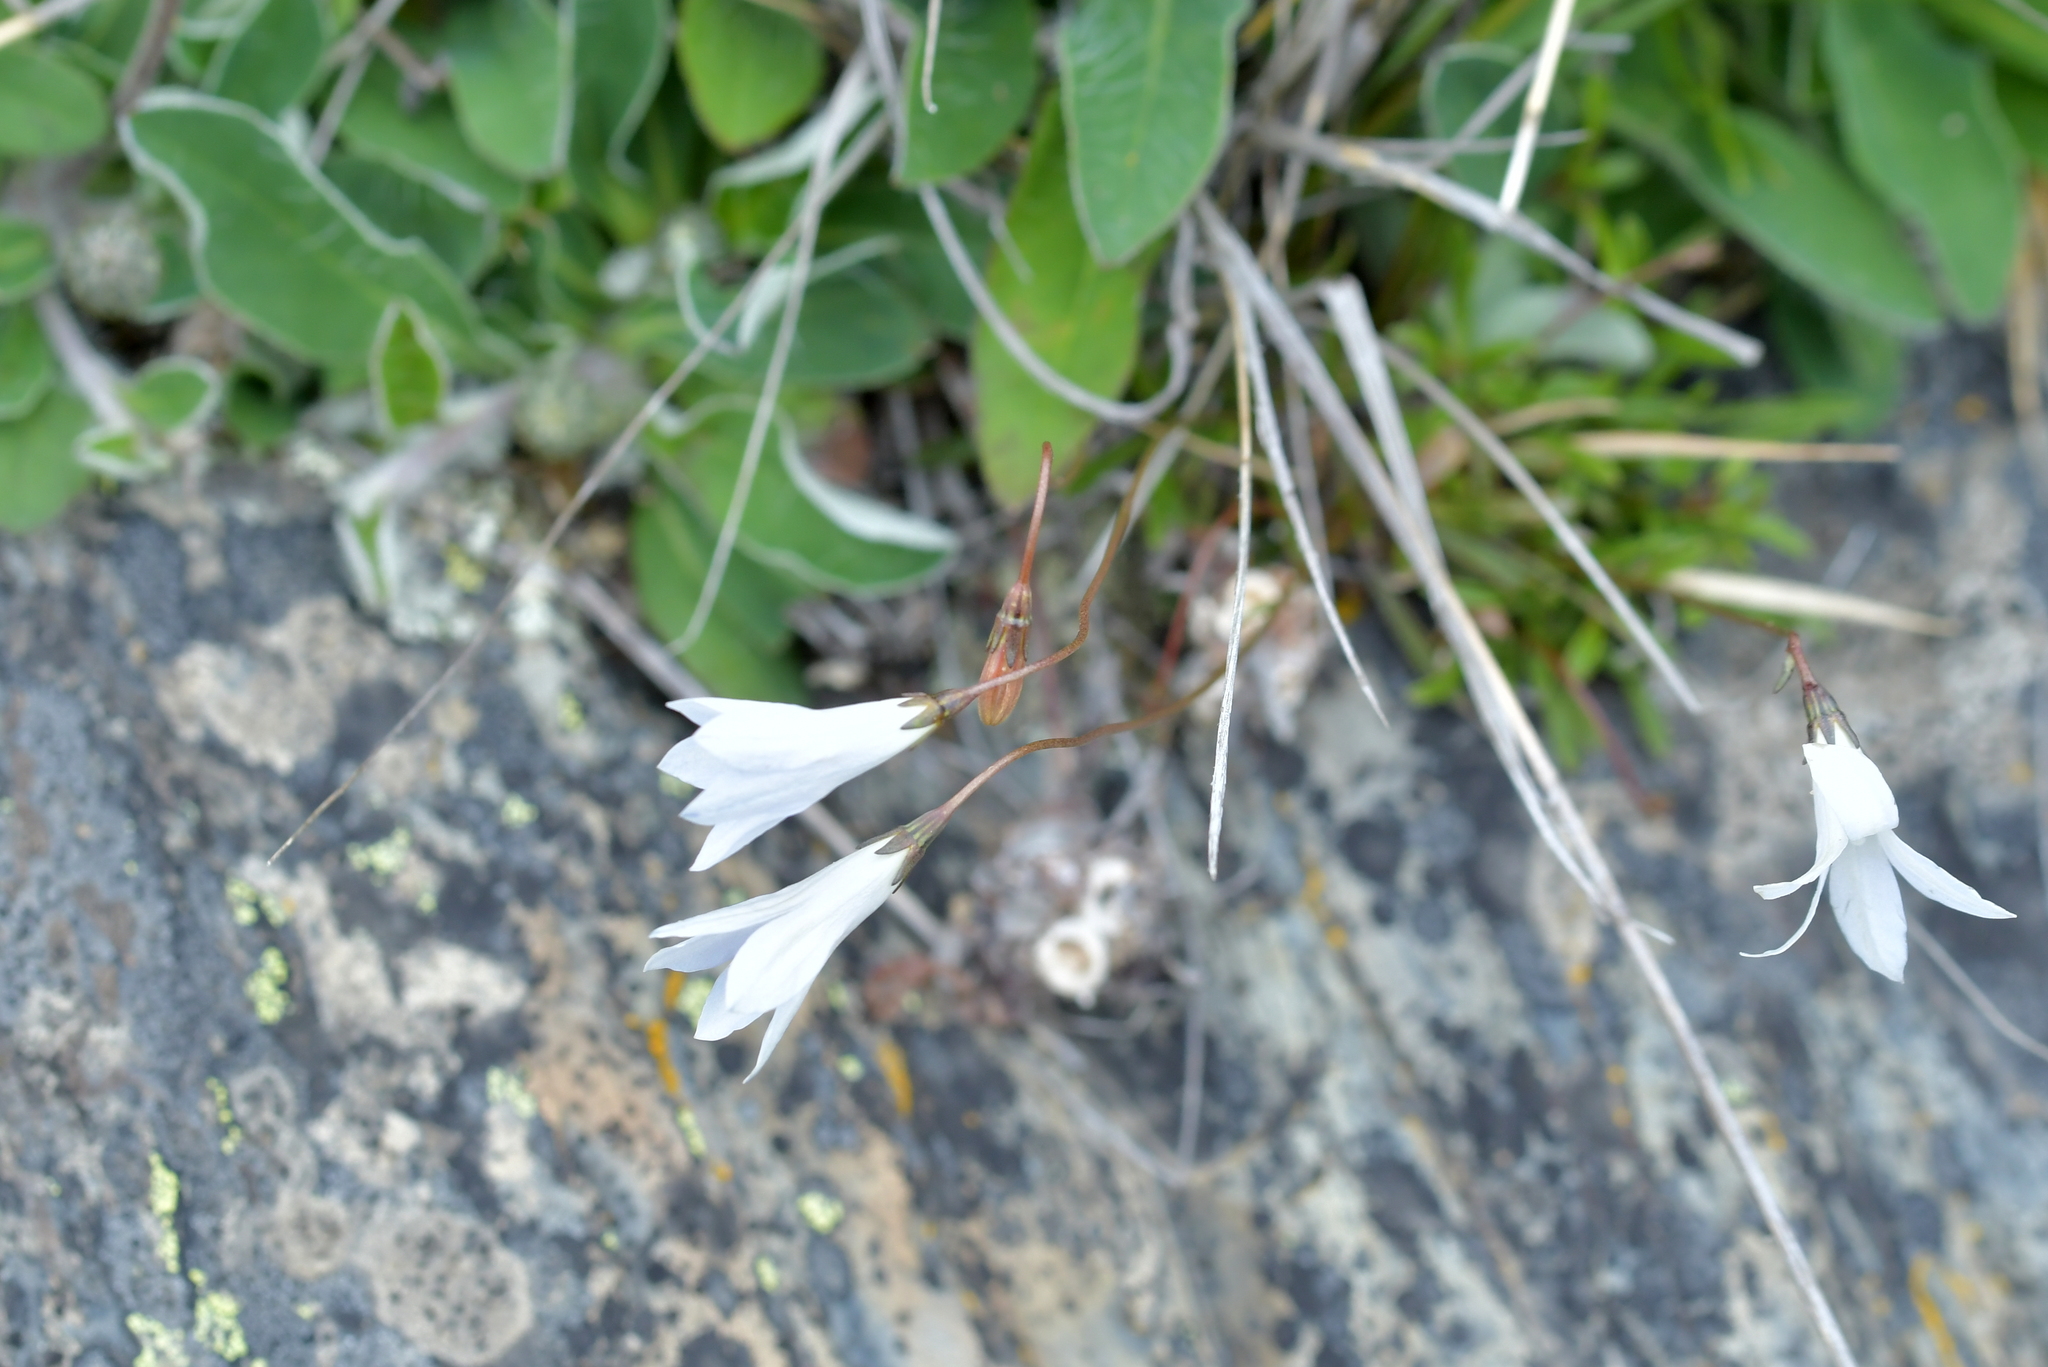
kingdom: Plantae
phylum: Tracheophyta
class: Magnoliopsida
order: Asterales
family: Campanulaceae
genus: Wahlenbergia
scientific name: Wahlenbergia albomarginata
